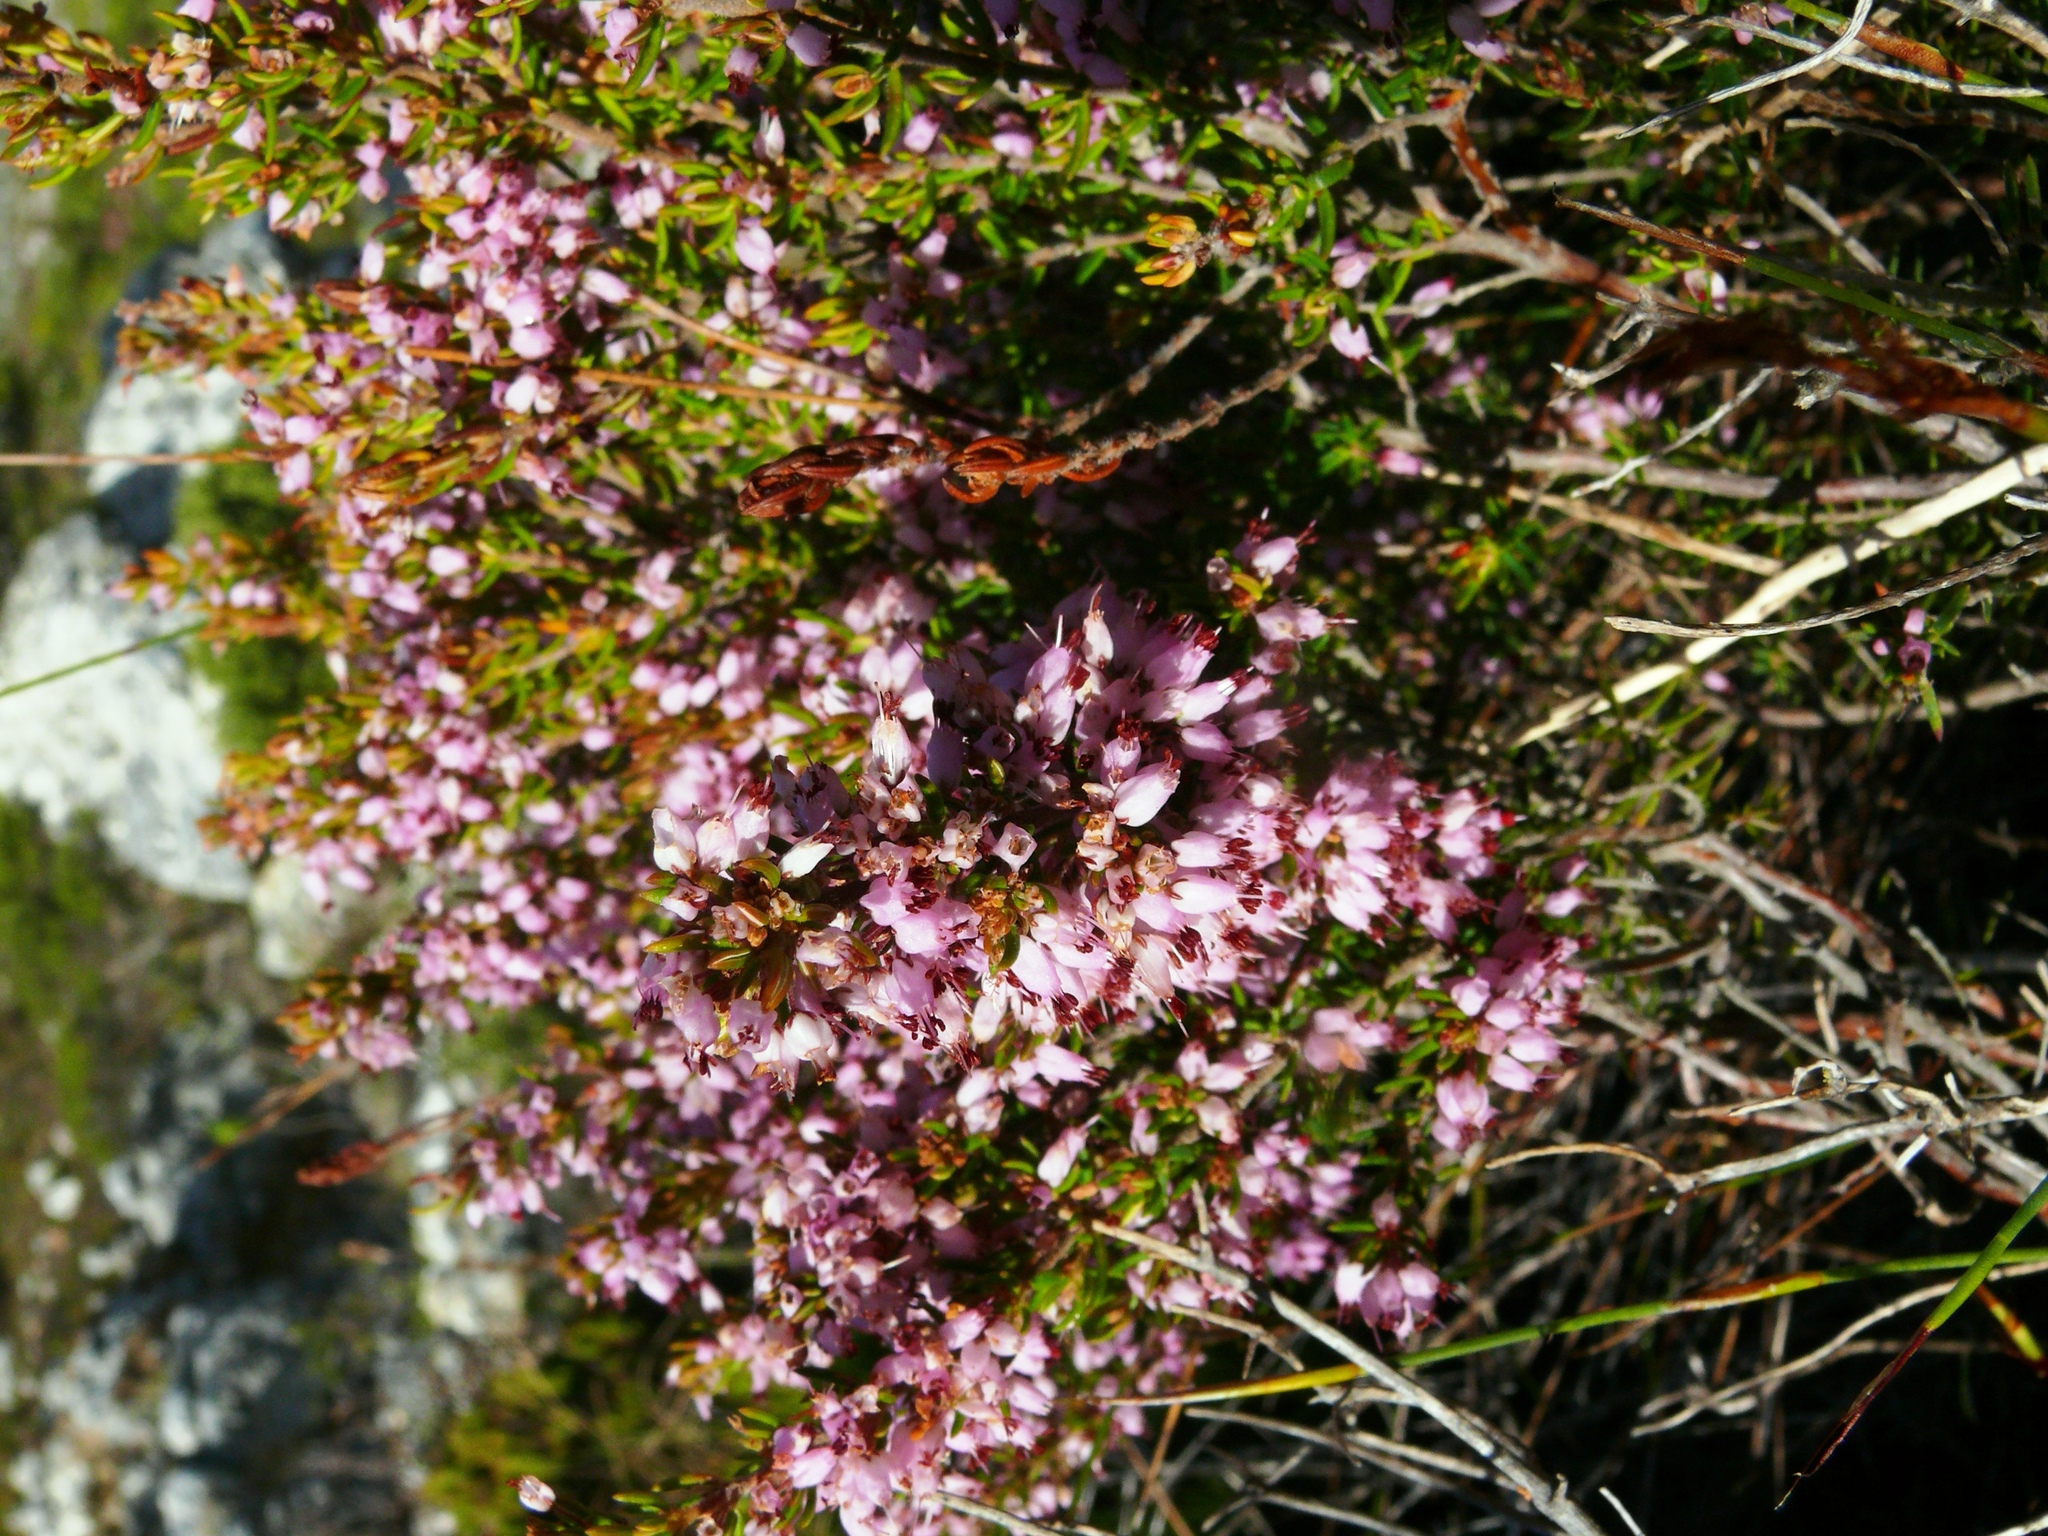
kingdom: Plantae
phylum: Tracheophyta
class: Magnoliopsida
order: Ericales
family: Ericaceae
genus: Erica
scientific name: Erica nudiflora
